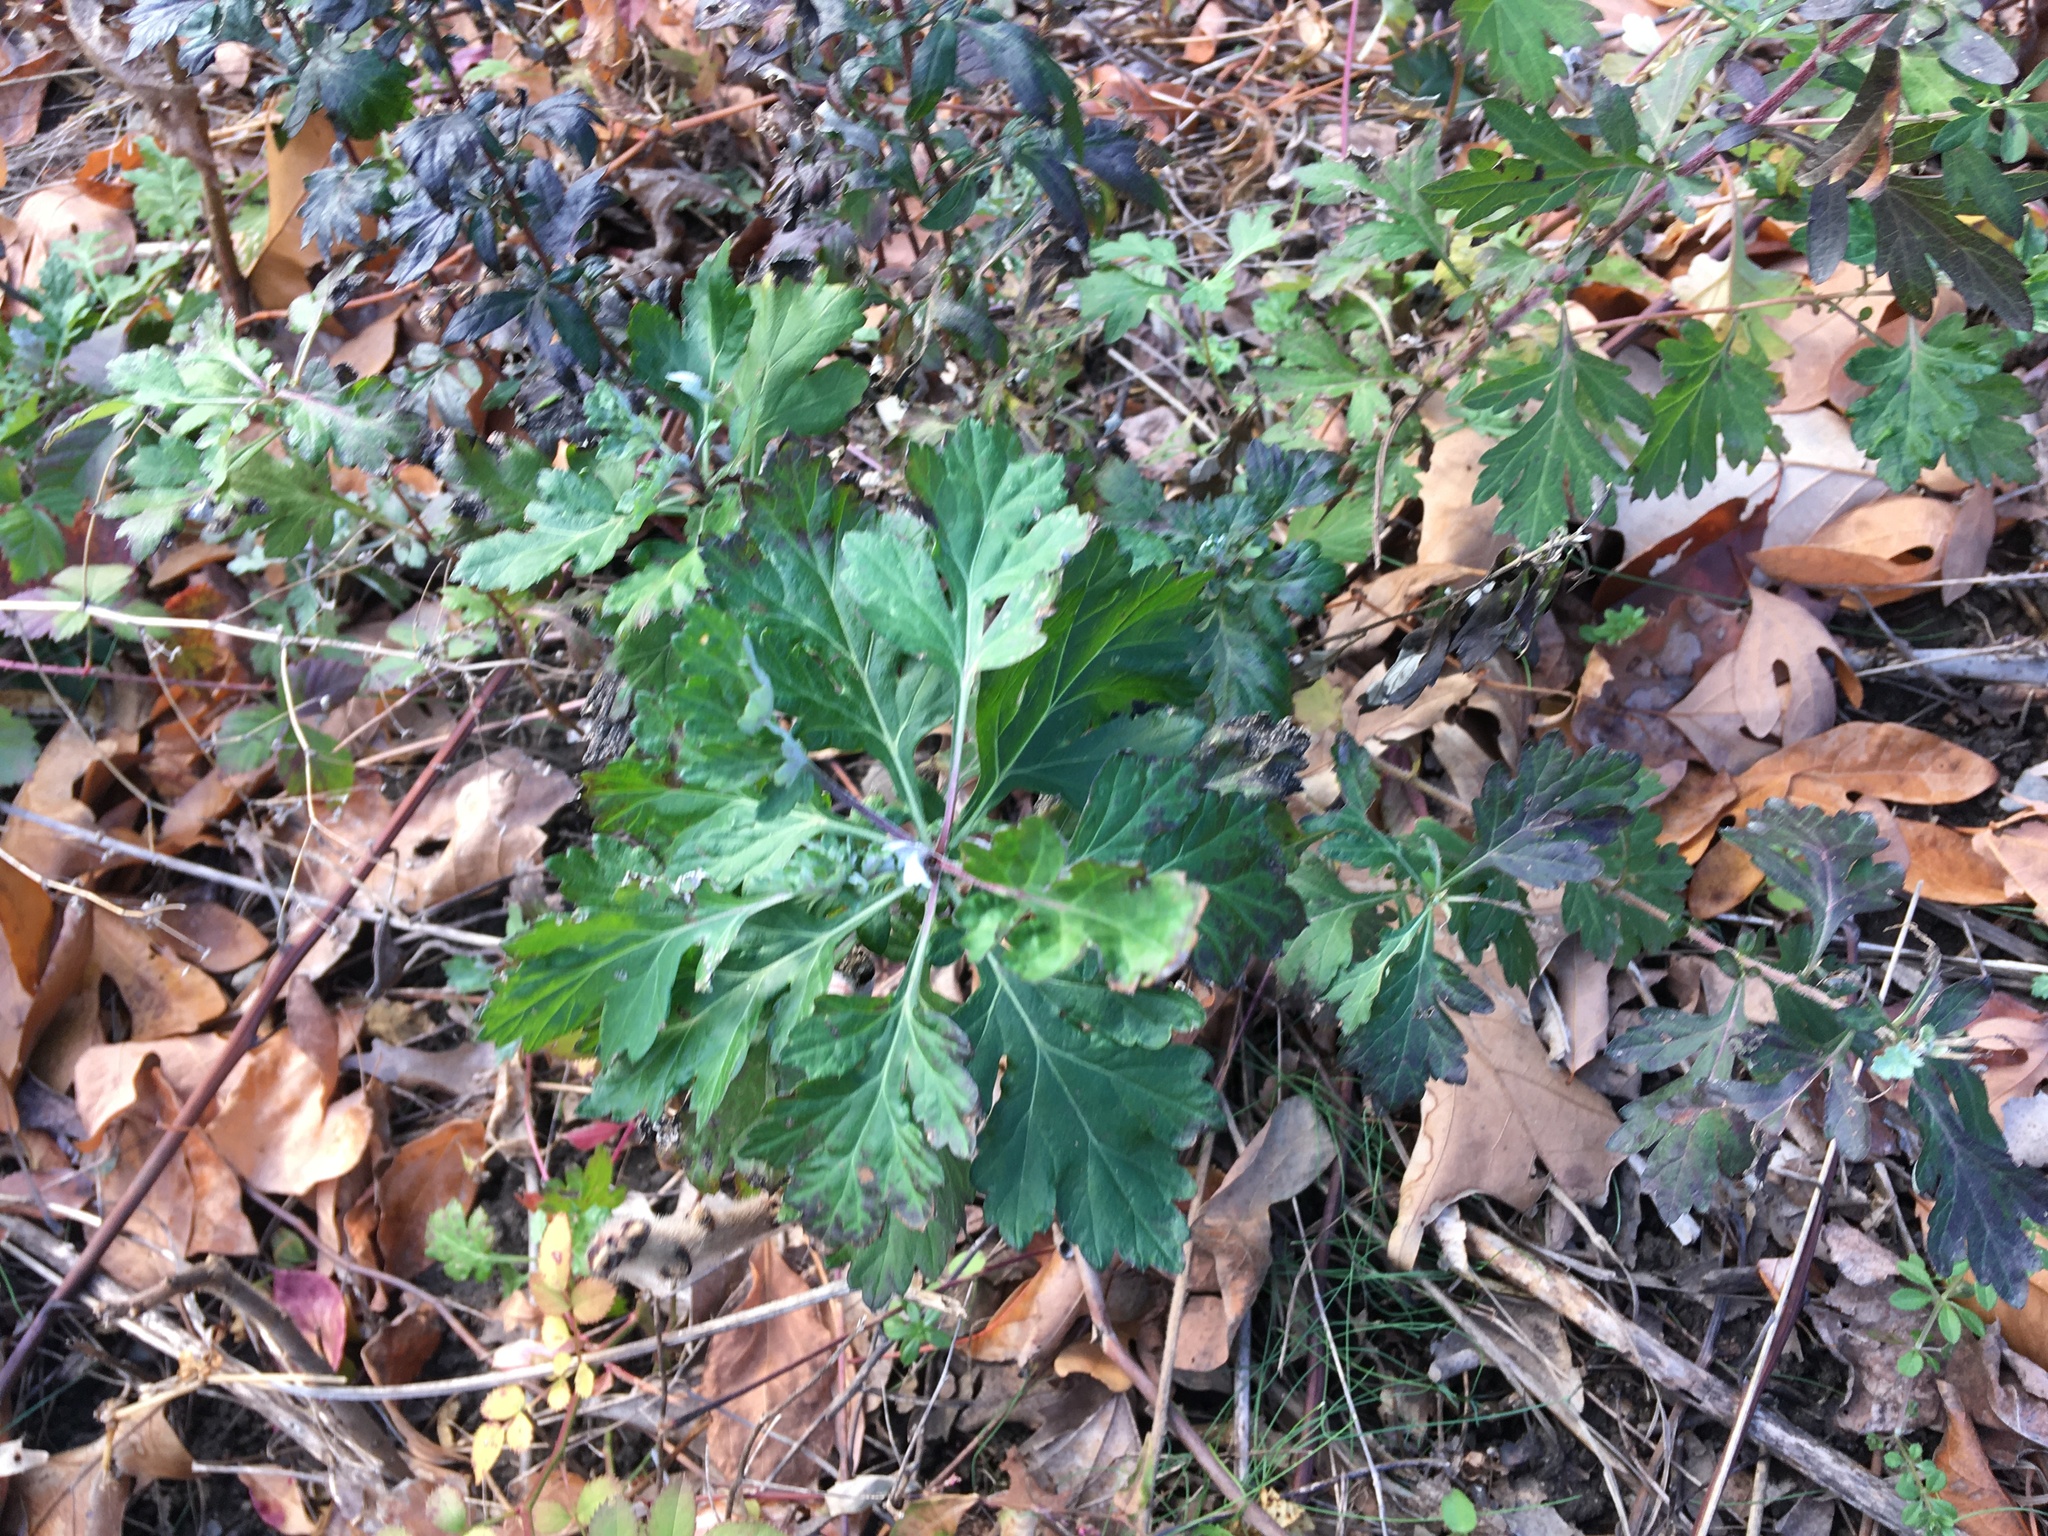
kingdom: Plantae
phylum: Tracheophyta
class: Magnoliopsida
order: Asterales
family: Asteraceae
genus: Artemisia
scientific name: Artemisia vulgaris
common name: Mugwort
